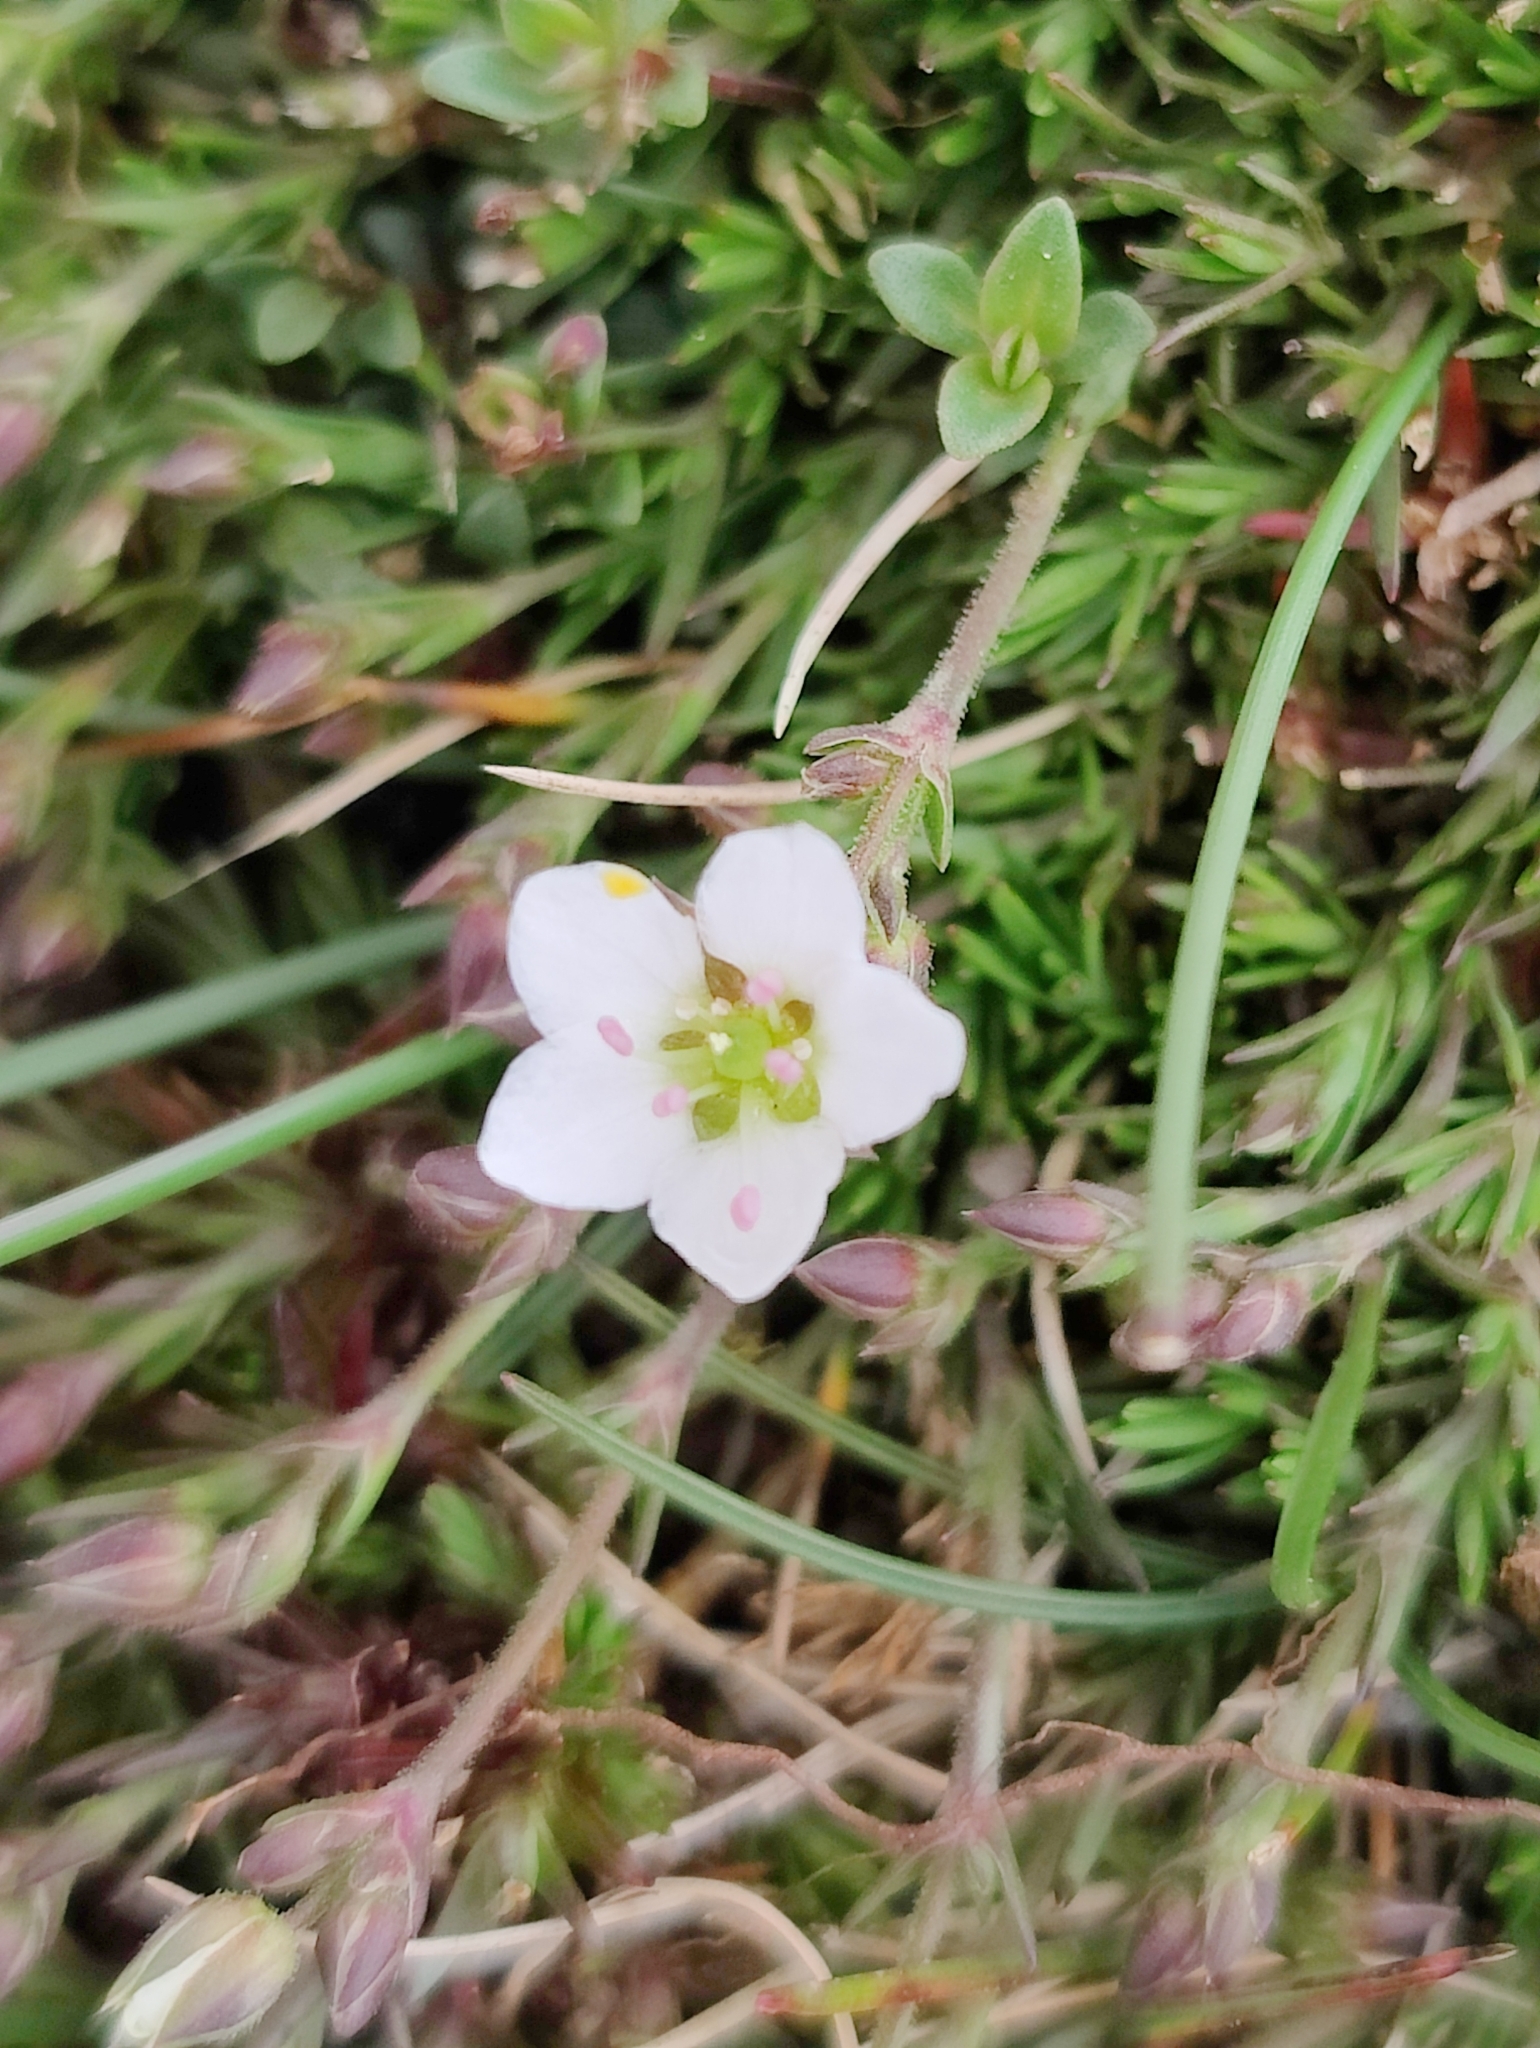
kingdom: Plantae
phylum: Tracheophyta
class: Magnoliopsida
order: Caryophyllales
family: Caryophyllaceae
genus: Sabulina
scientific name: Sabulina verna
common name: Spring sandwort
